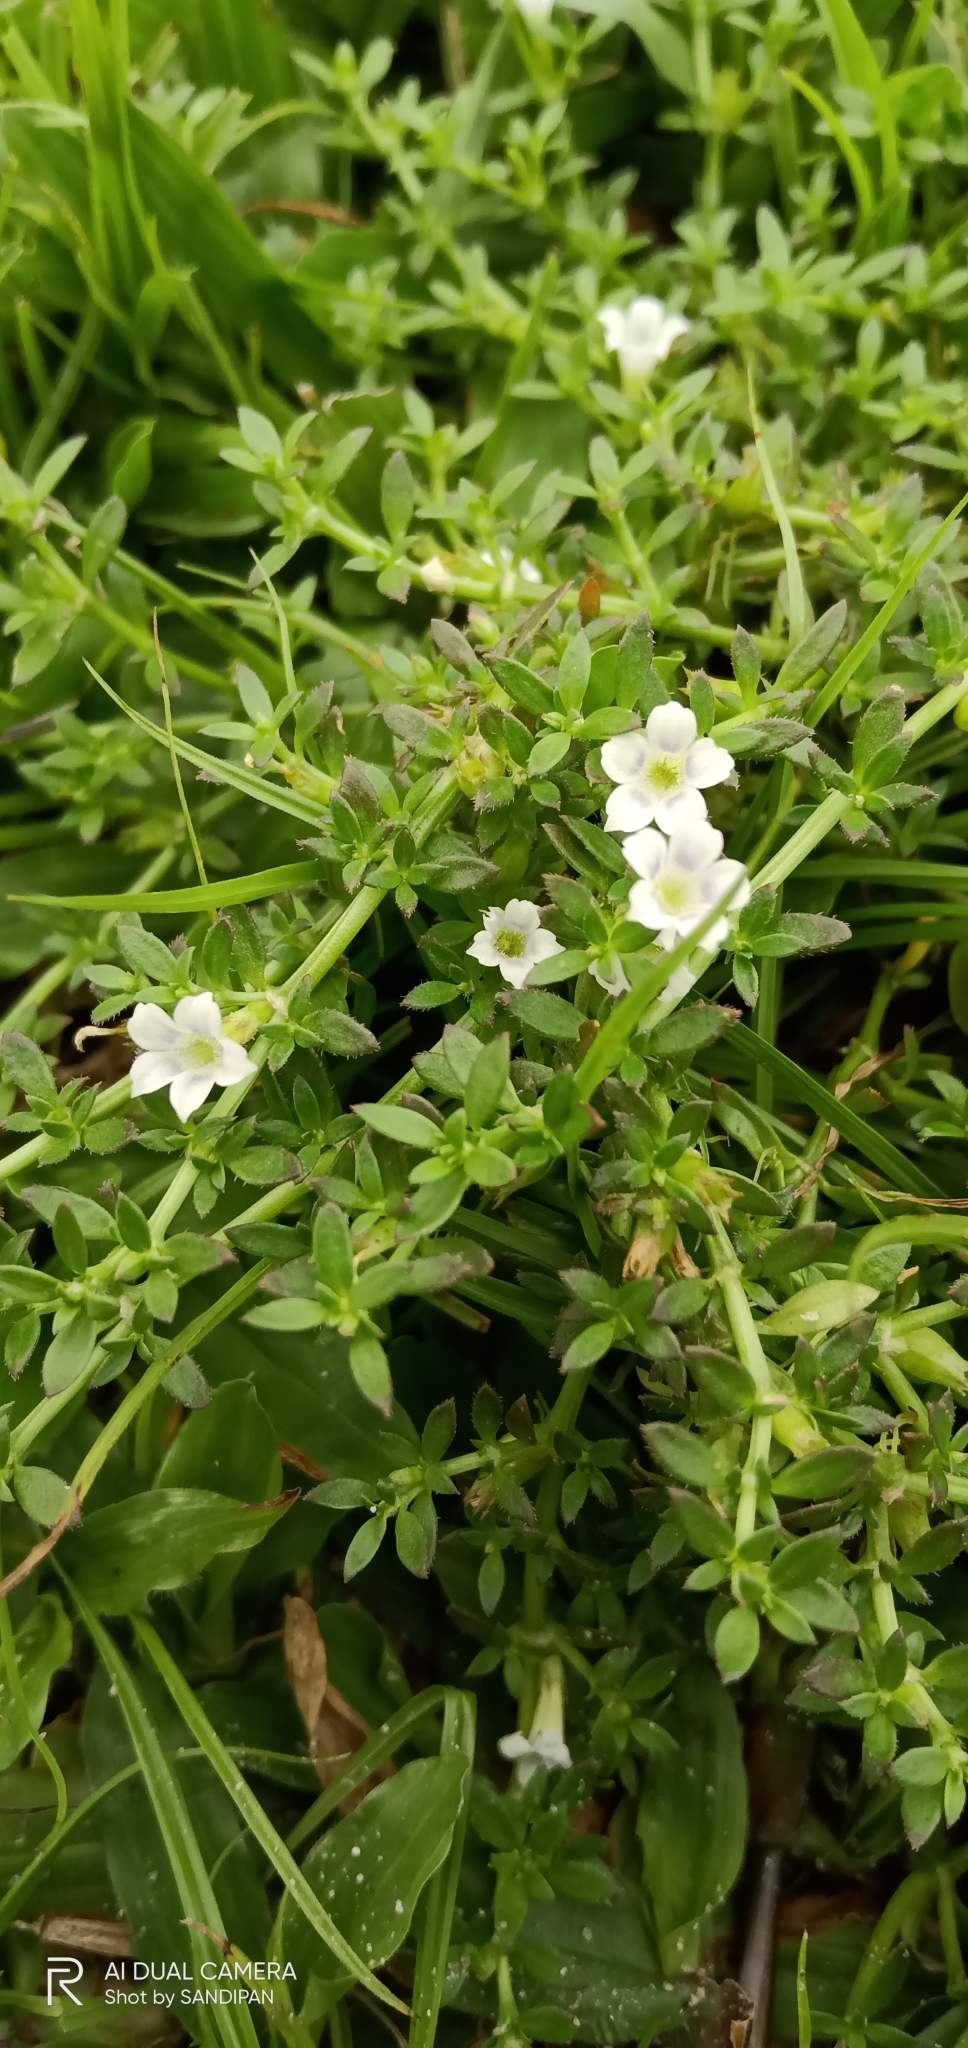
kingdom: Plantae
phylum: Tracheophyta
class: Magnoliopsida
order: Gentianales
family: Rubiaceae
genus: Dentella
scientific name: Dentella repens
